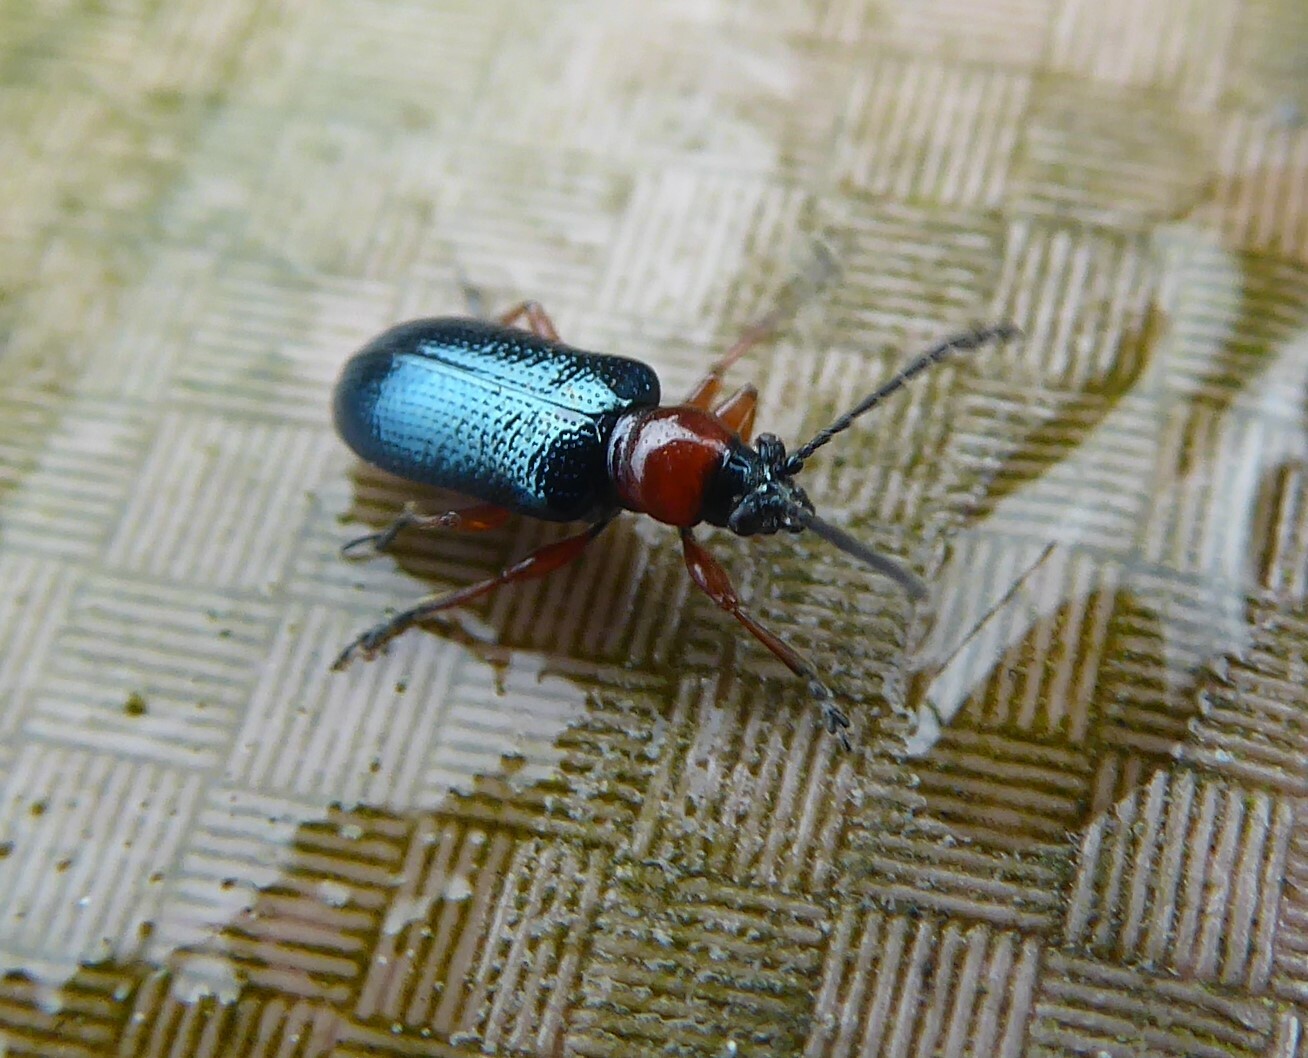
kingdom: Animalia
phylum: Arthropoda
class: Insecta
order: Coleoptera
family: Chrysomelidae
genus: Oulema
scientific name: Oulema
